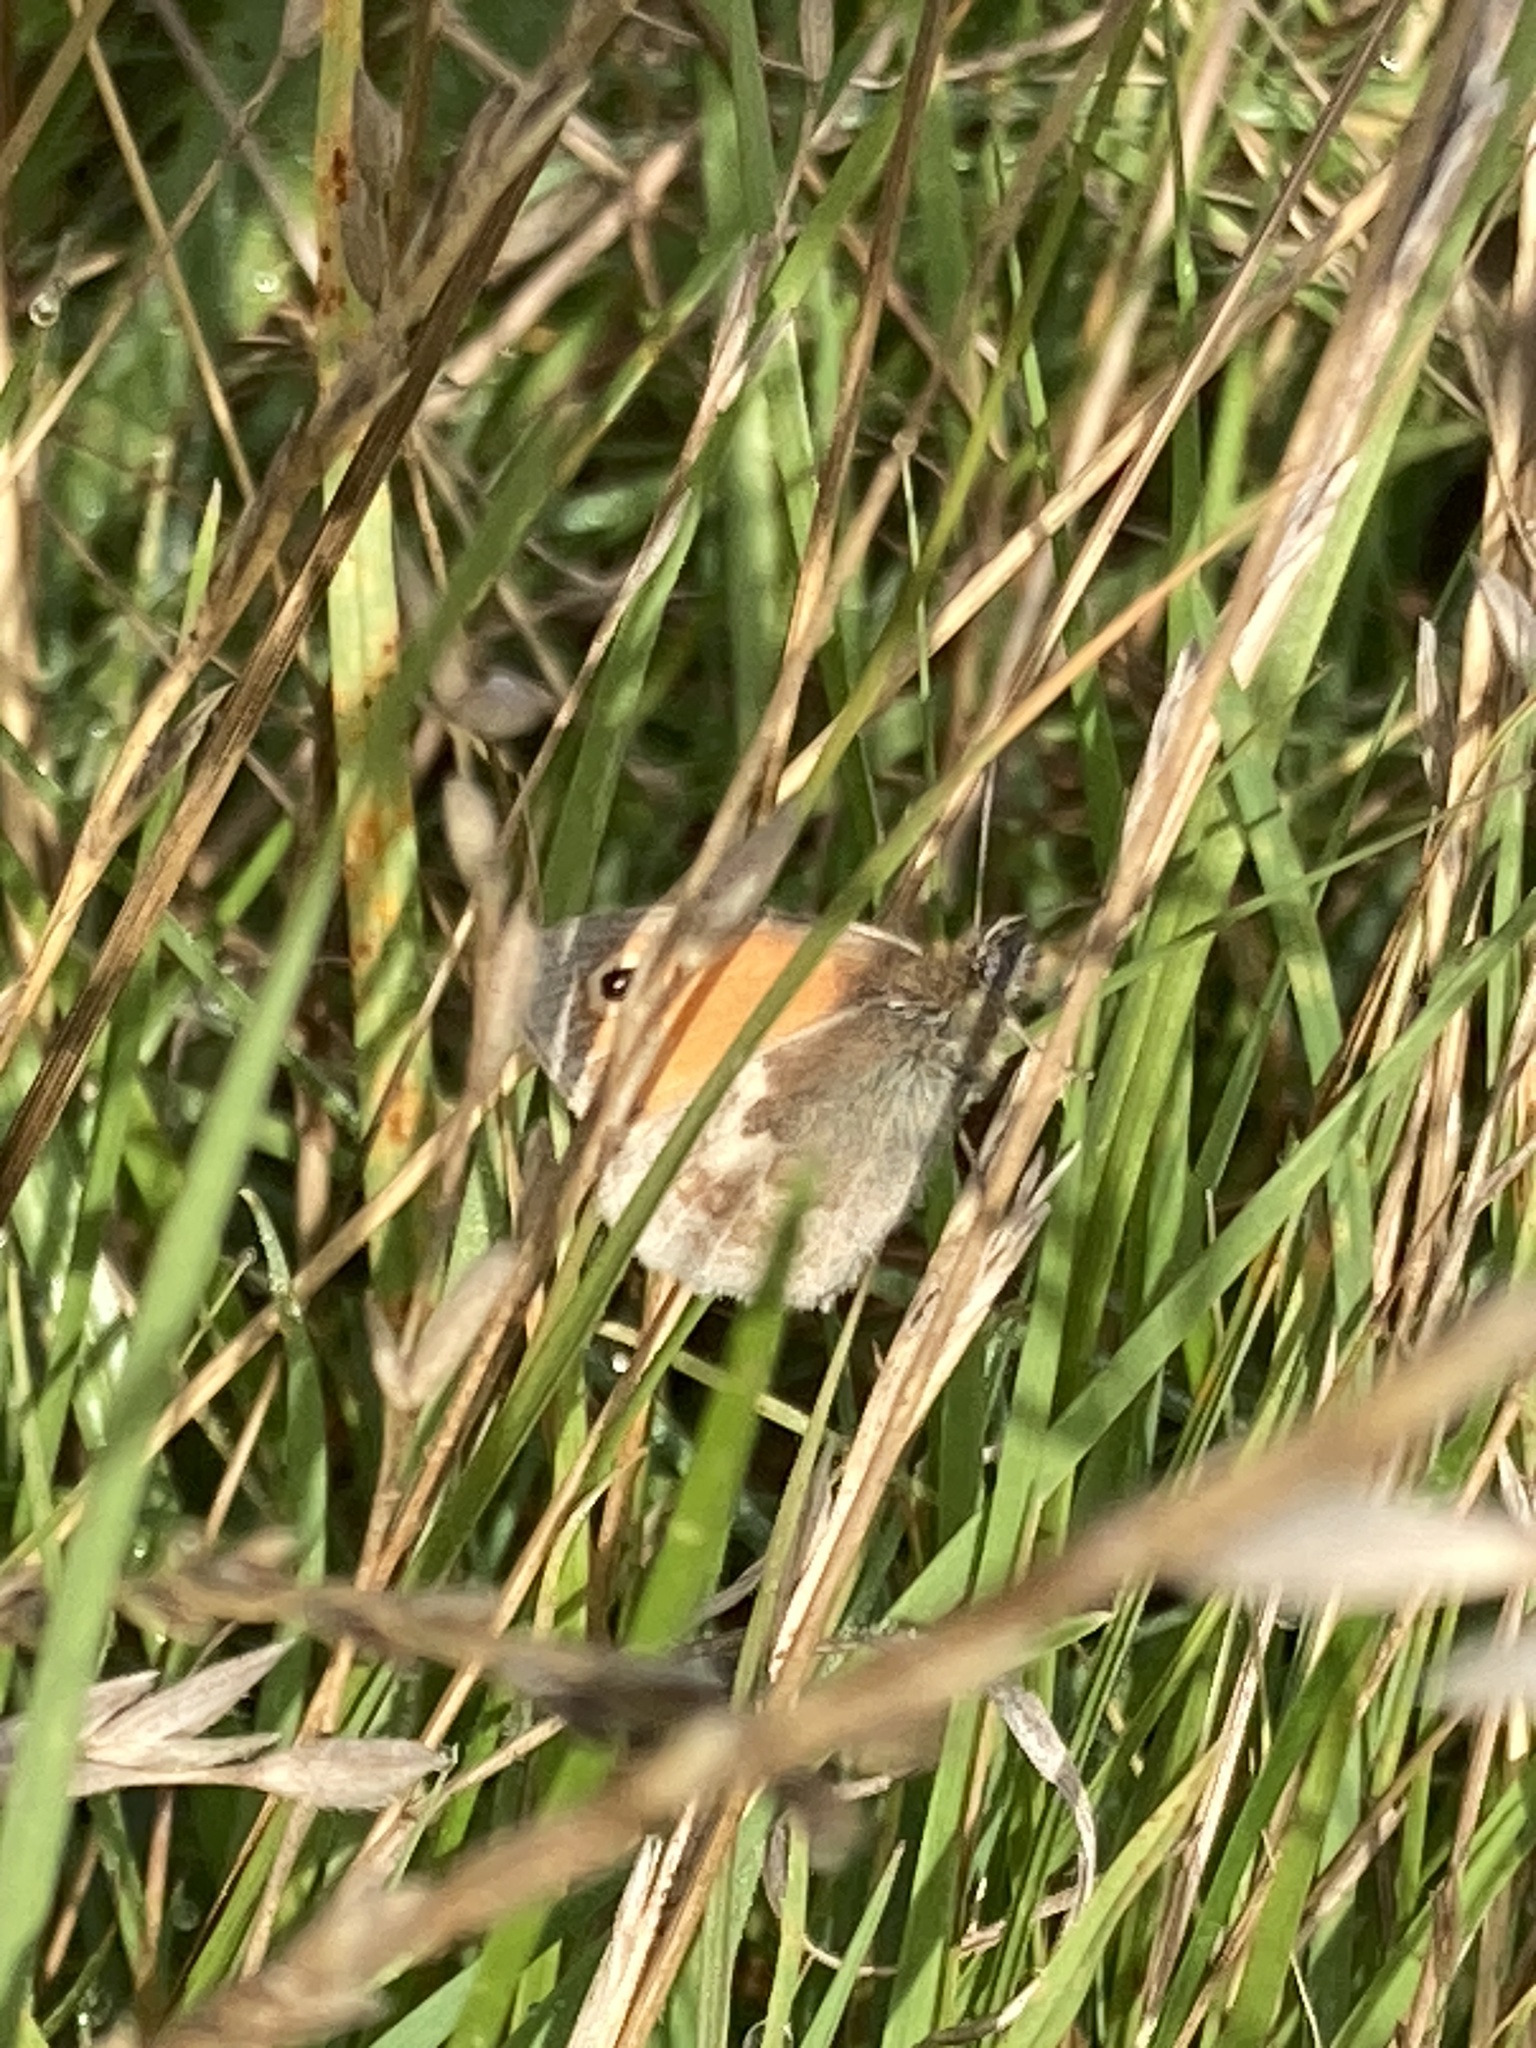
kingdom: Animalia
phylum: Arthropoda
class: Insecta
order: Lepidoptera
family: Nymphalidae
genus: Coenonympha
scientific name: Coenonympha pamphilus
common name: Small heath
